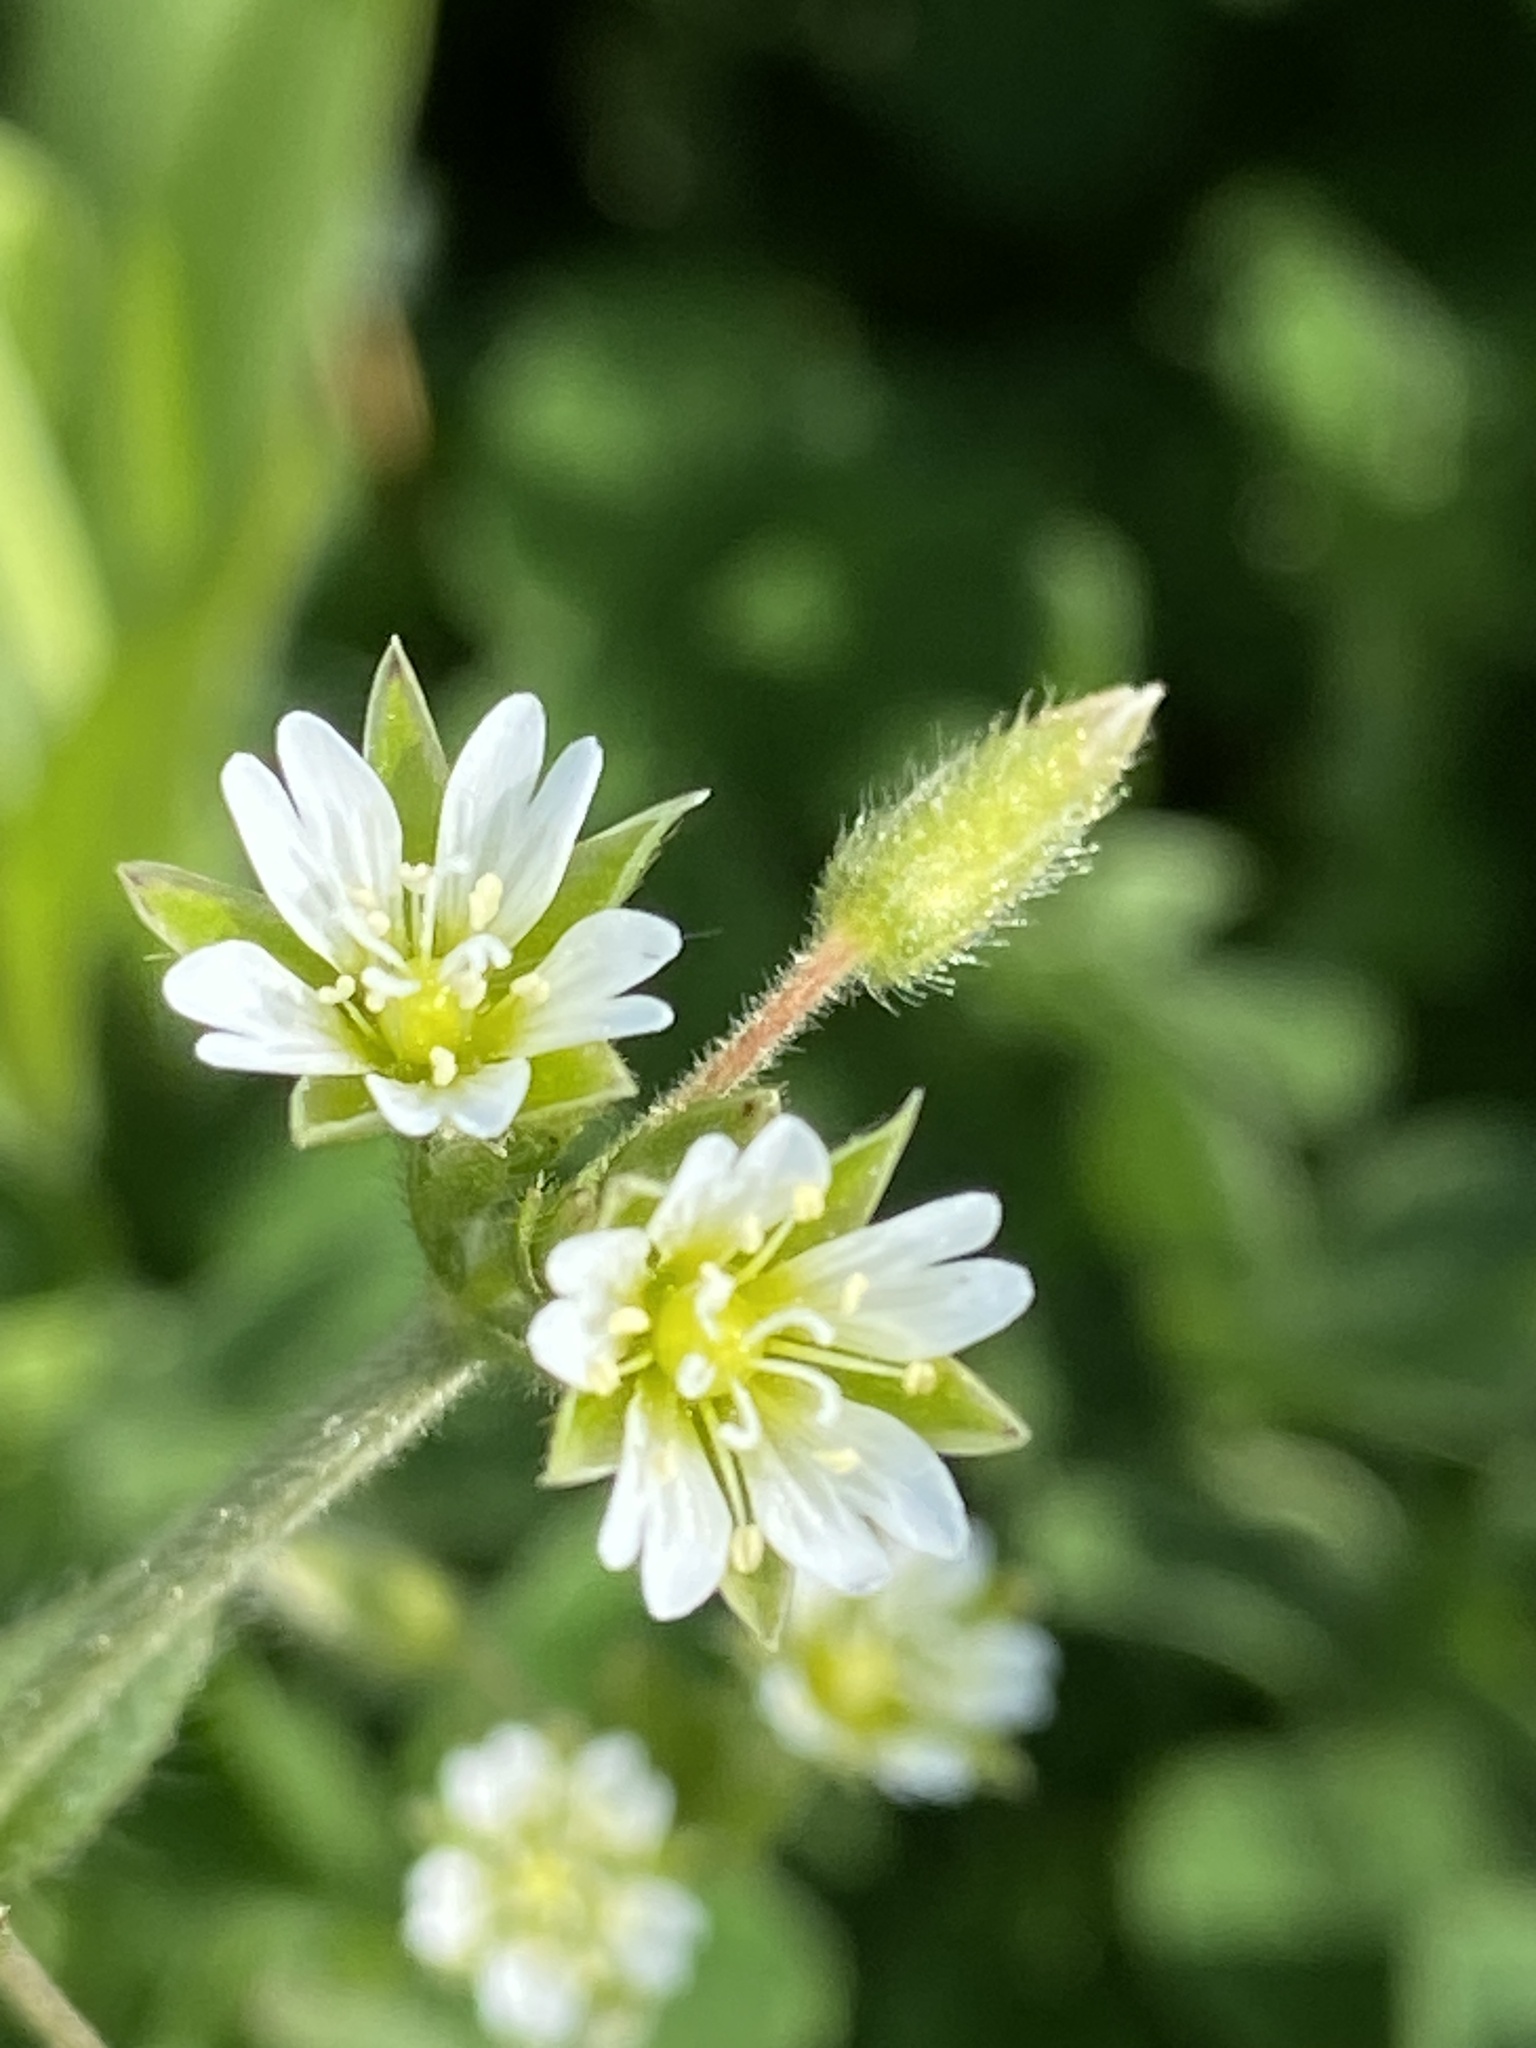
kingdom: Plantae
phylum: Tracheophyta
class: Magnoliopsida
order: Caryophyllales
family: Caryophyllaceae
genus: Stellaria
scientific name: Stellaria media
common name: Common chickweed
